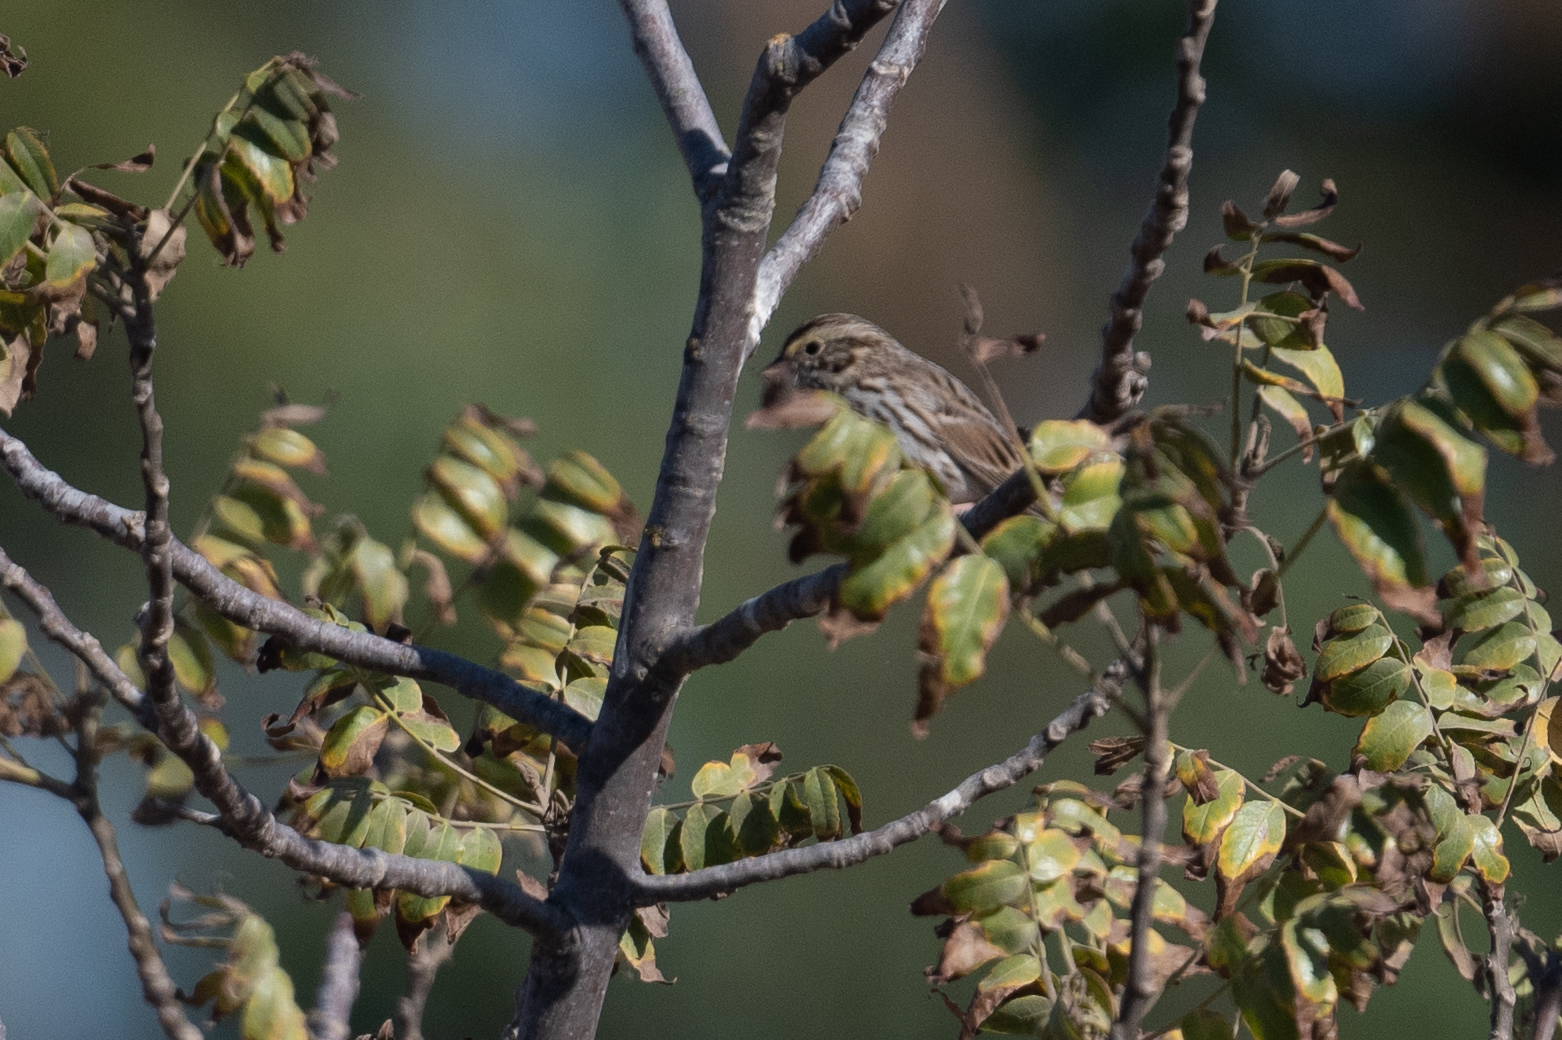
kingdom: Animalia
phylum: Chordata
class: Aves
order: Passeriformes
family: Passerellidae
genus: Passerculus
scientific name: Passerculus sandwichensis
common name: Savannah sparrow
